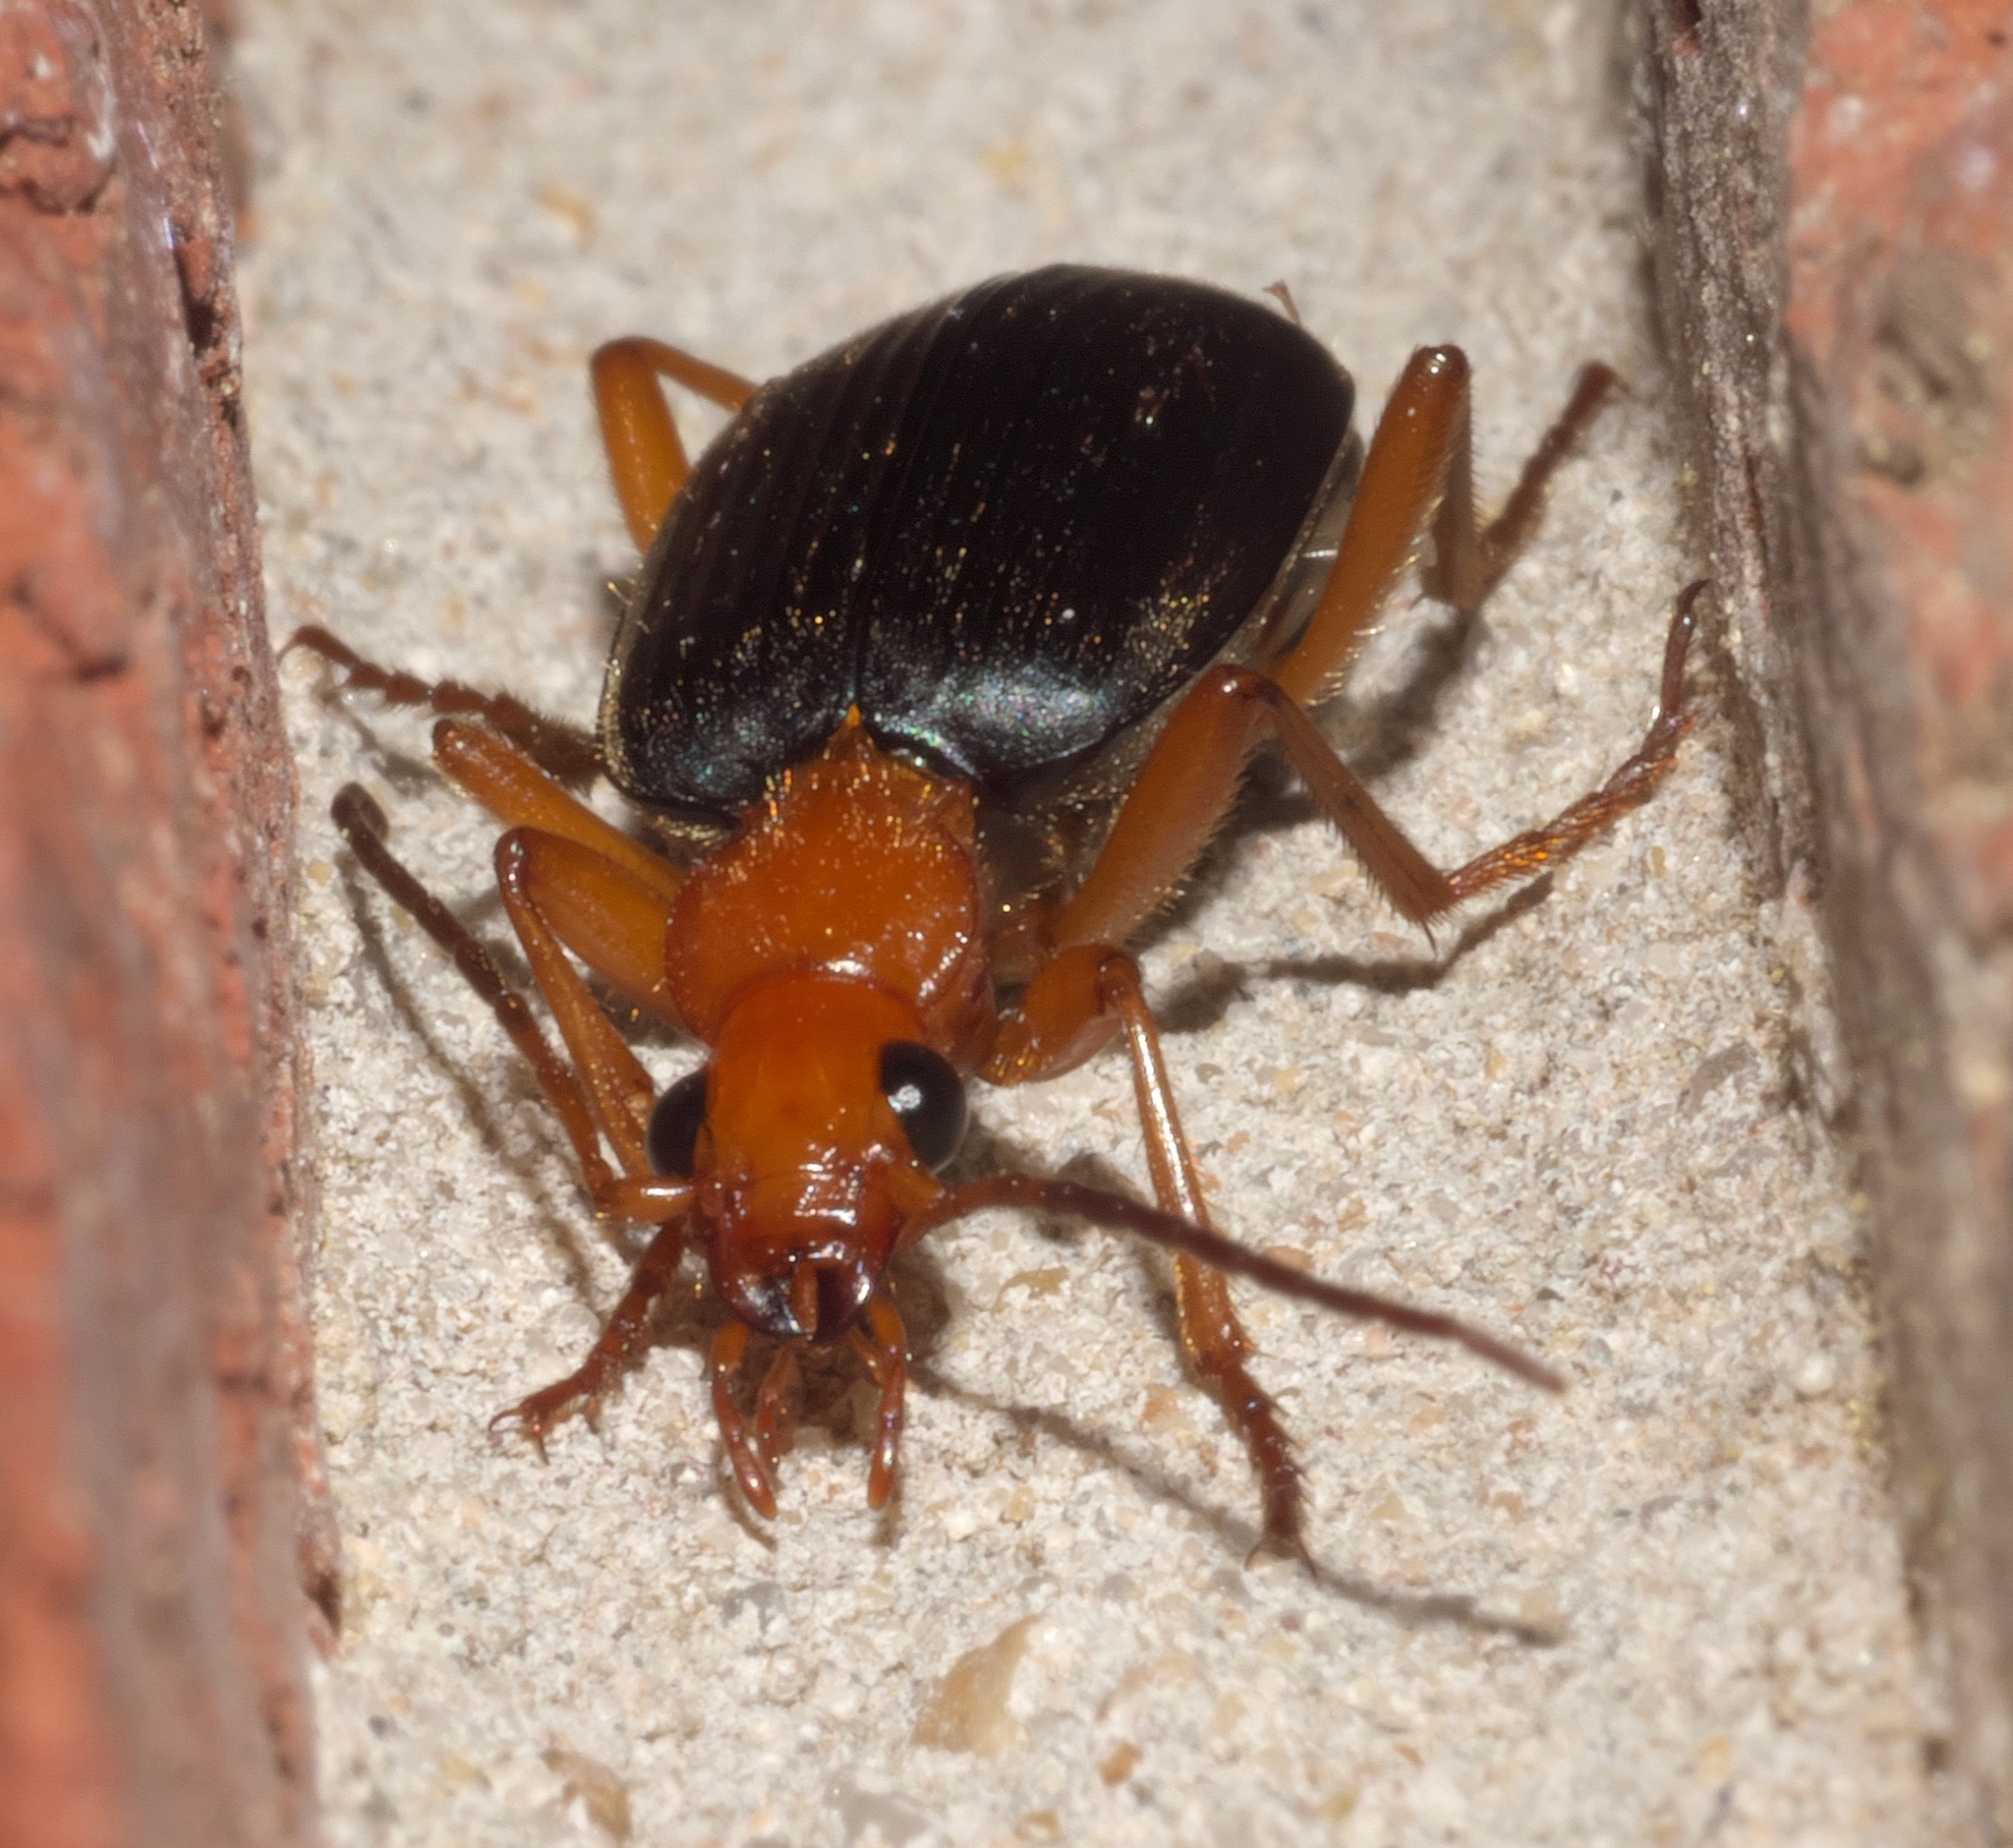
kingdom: Animalia
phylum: Arthropoda
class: Insecta
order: Coleoptera
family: Carabidae
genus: Brachinus
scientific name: Brachinus
